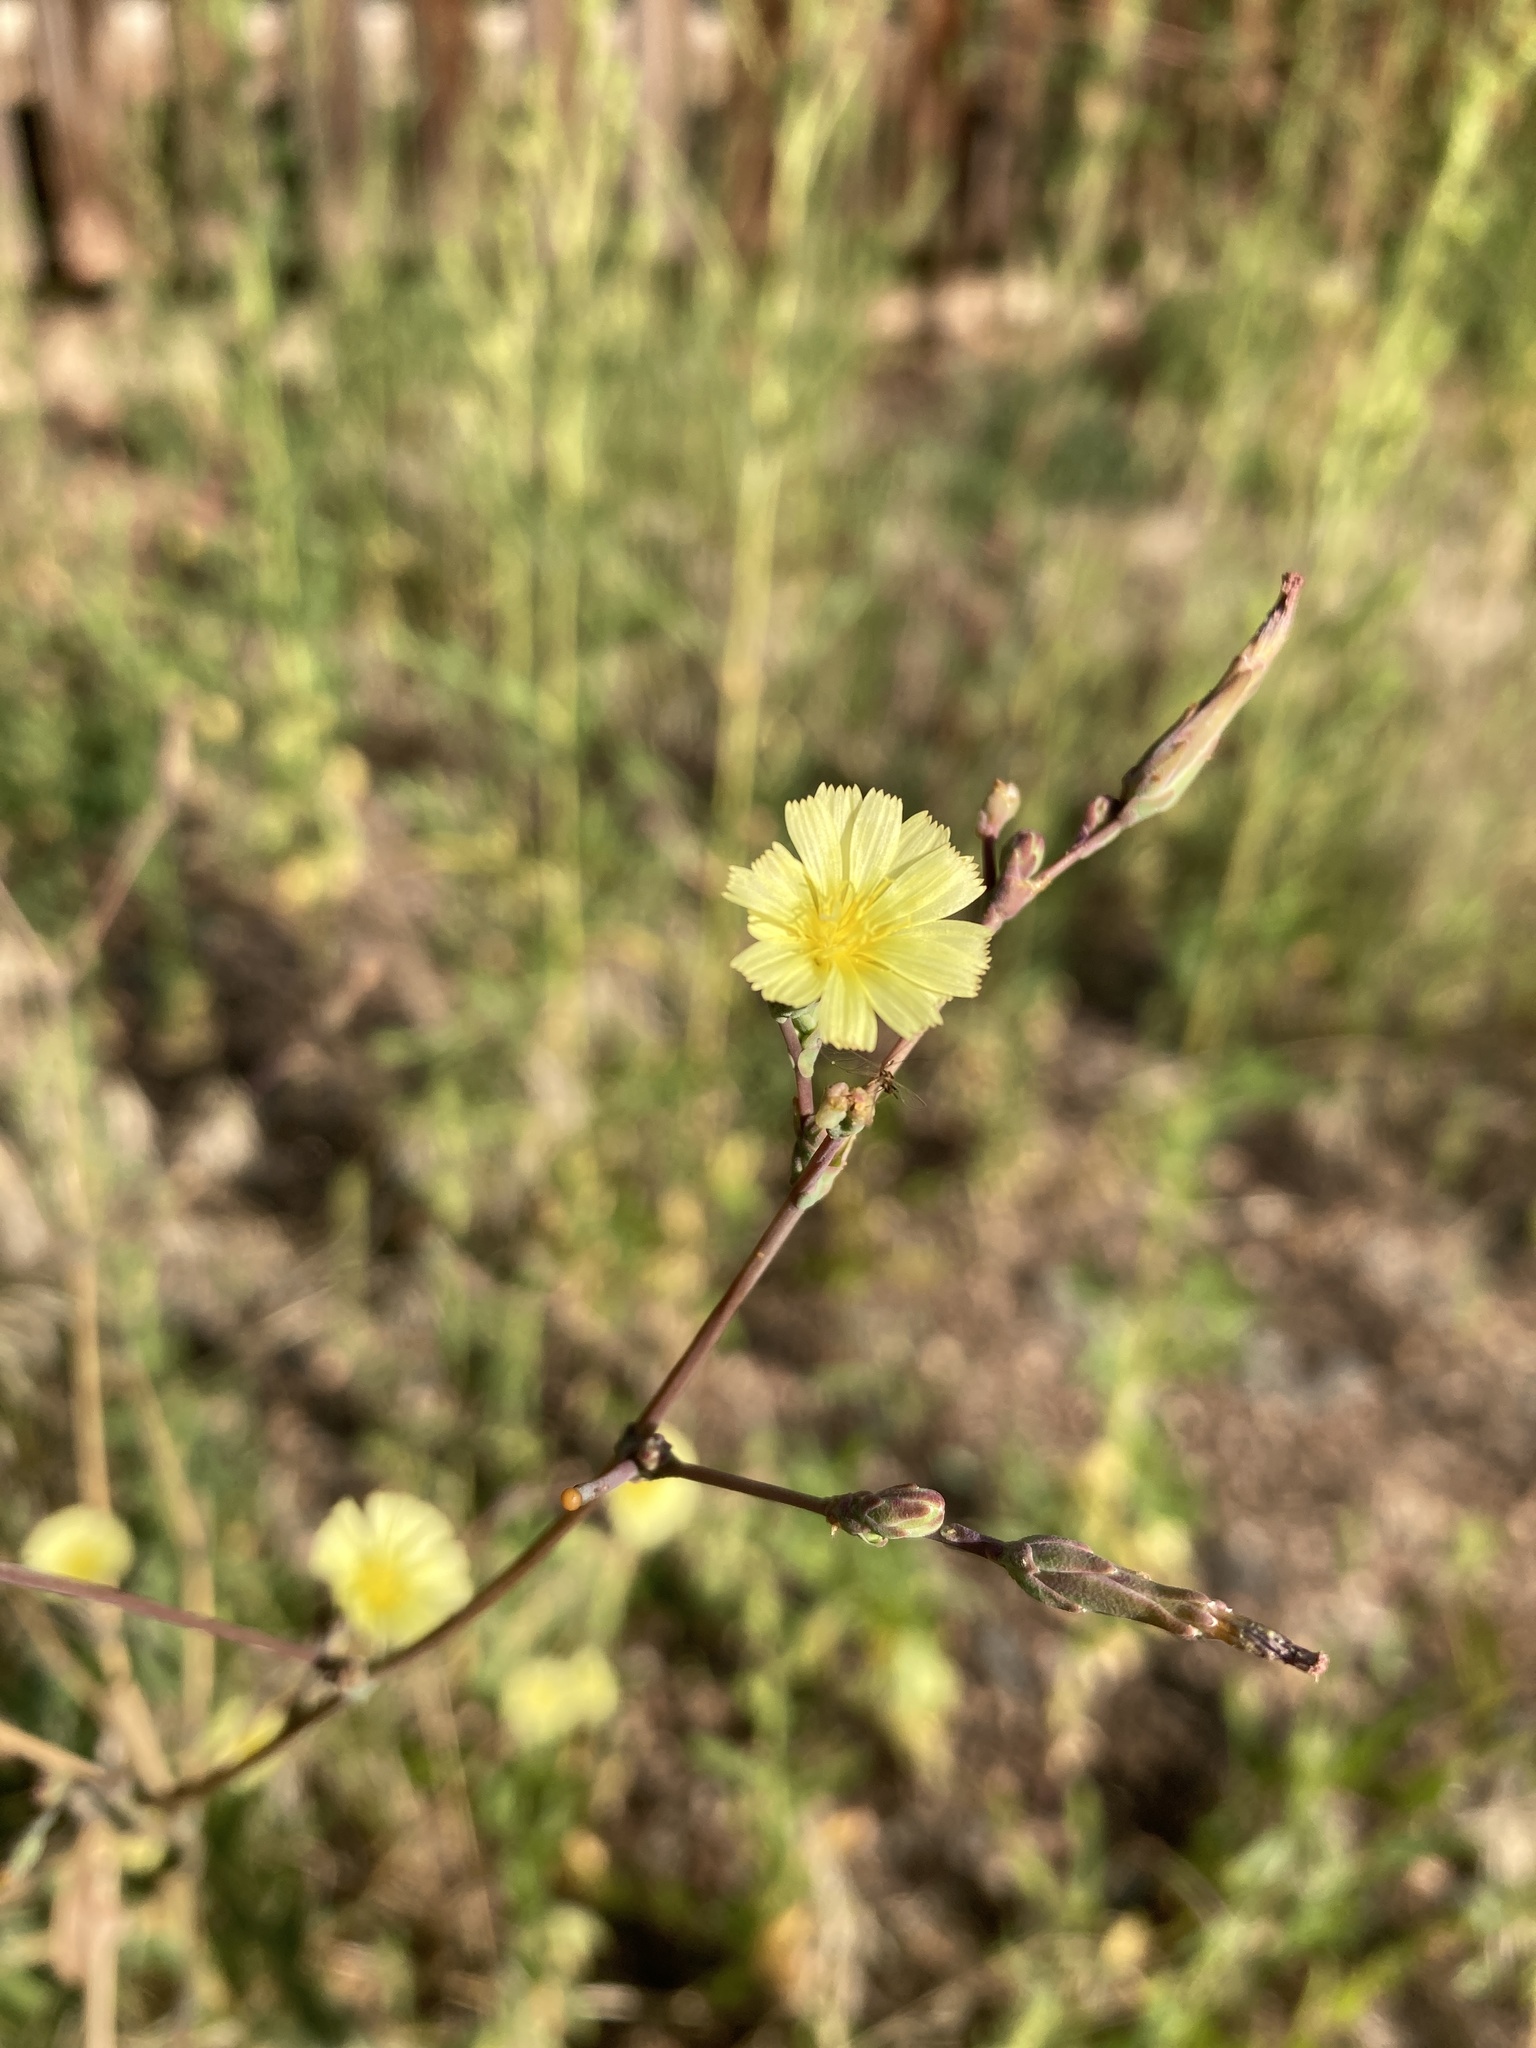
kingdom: Plantae
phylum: Tracheophyta
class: Magnoliopsida
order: Asterales
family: Asteraceae
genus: Lactuca
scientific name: Lactuca serriola
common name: Prickly lettuce
